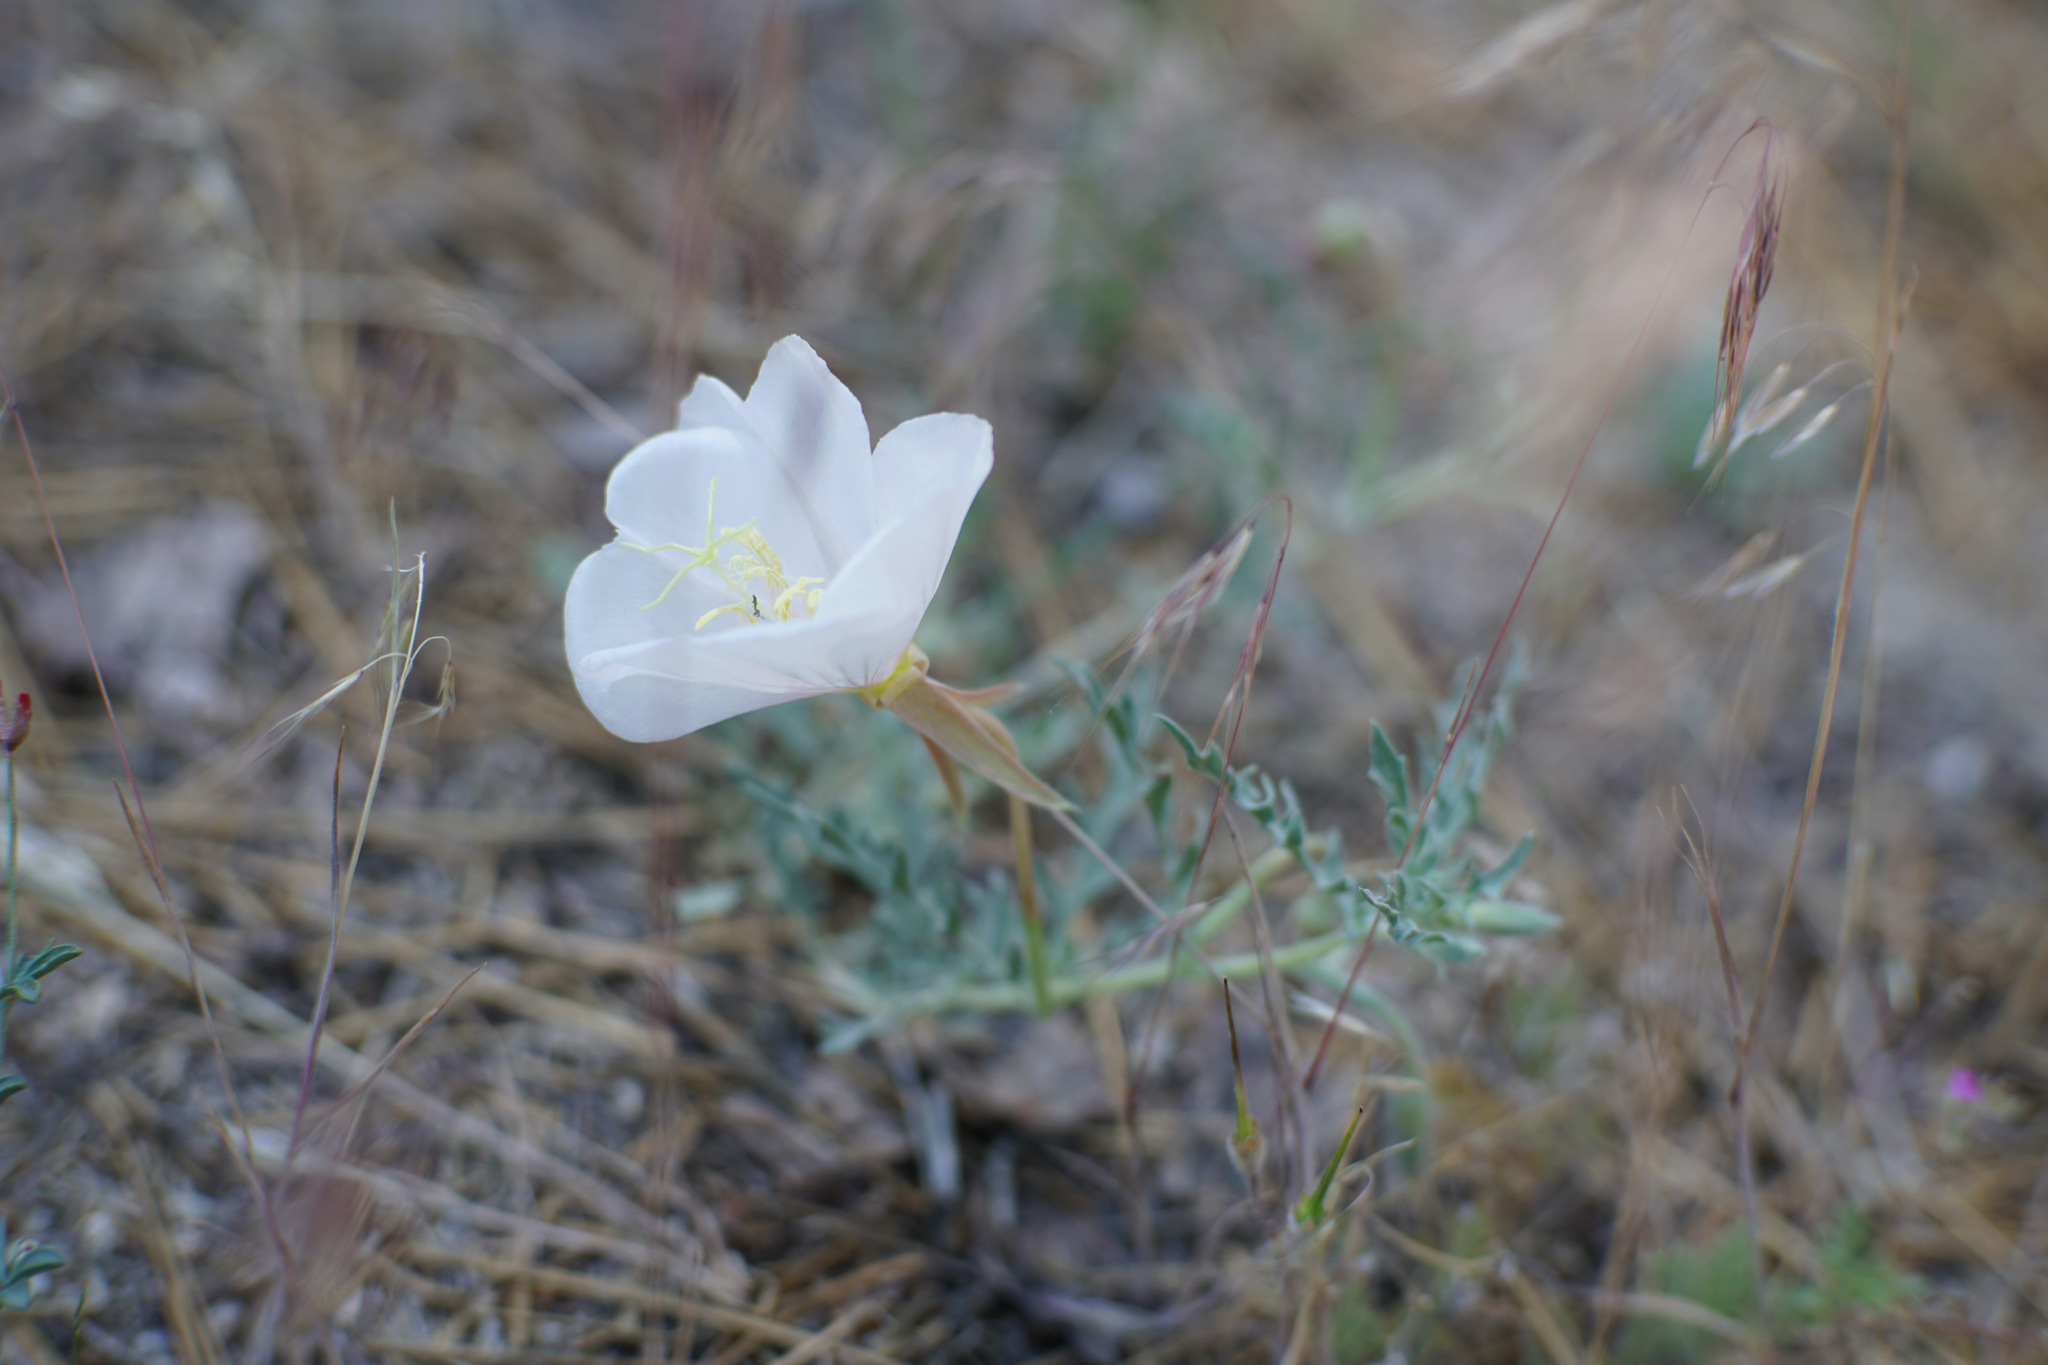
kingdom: Plantae
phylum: Tracheophyta
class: Magnoliopsida
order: Myrtales
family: Onagraceae
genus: Oenothera
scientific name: Oenothera avita
